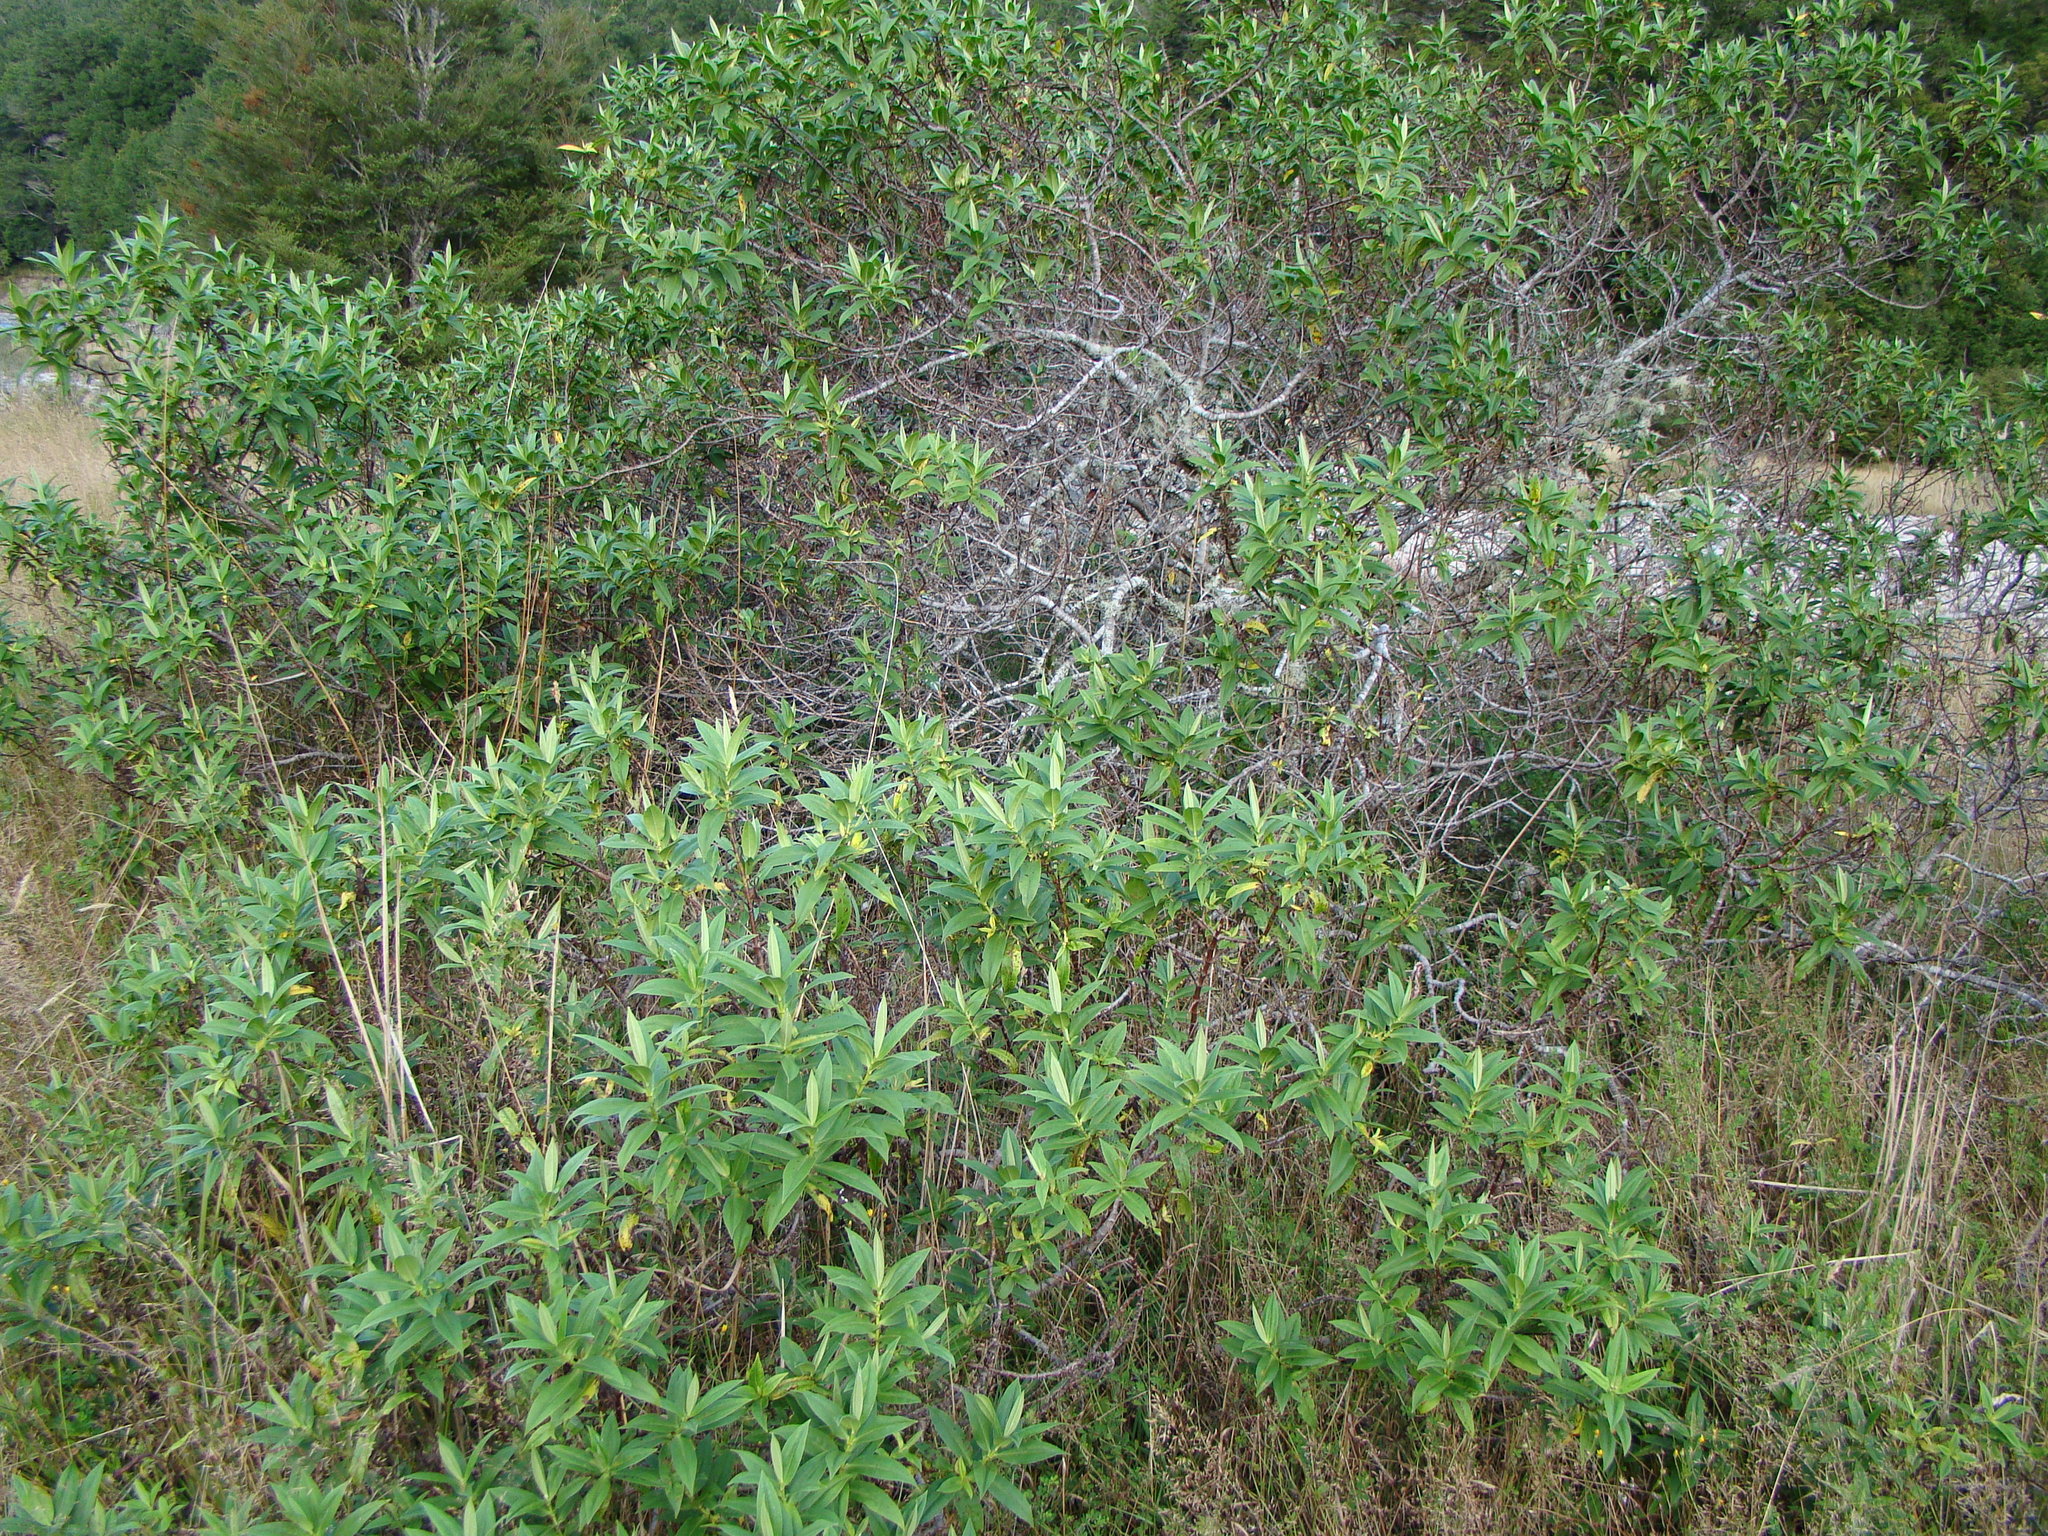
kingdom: Plantae
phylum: Tracheophyta
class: Magnoliopsida
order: Lamiales
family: Plantaginaceae
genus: Veronica
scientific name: Veronica salicifolia
